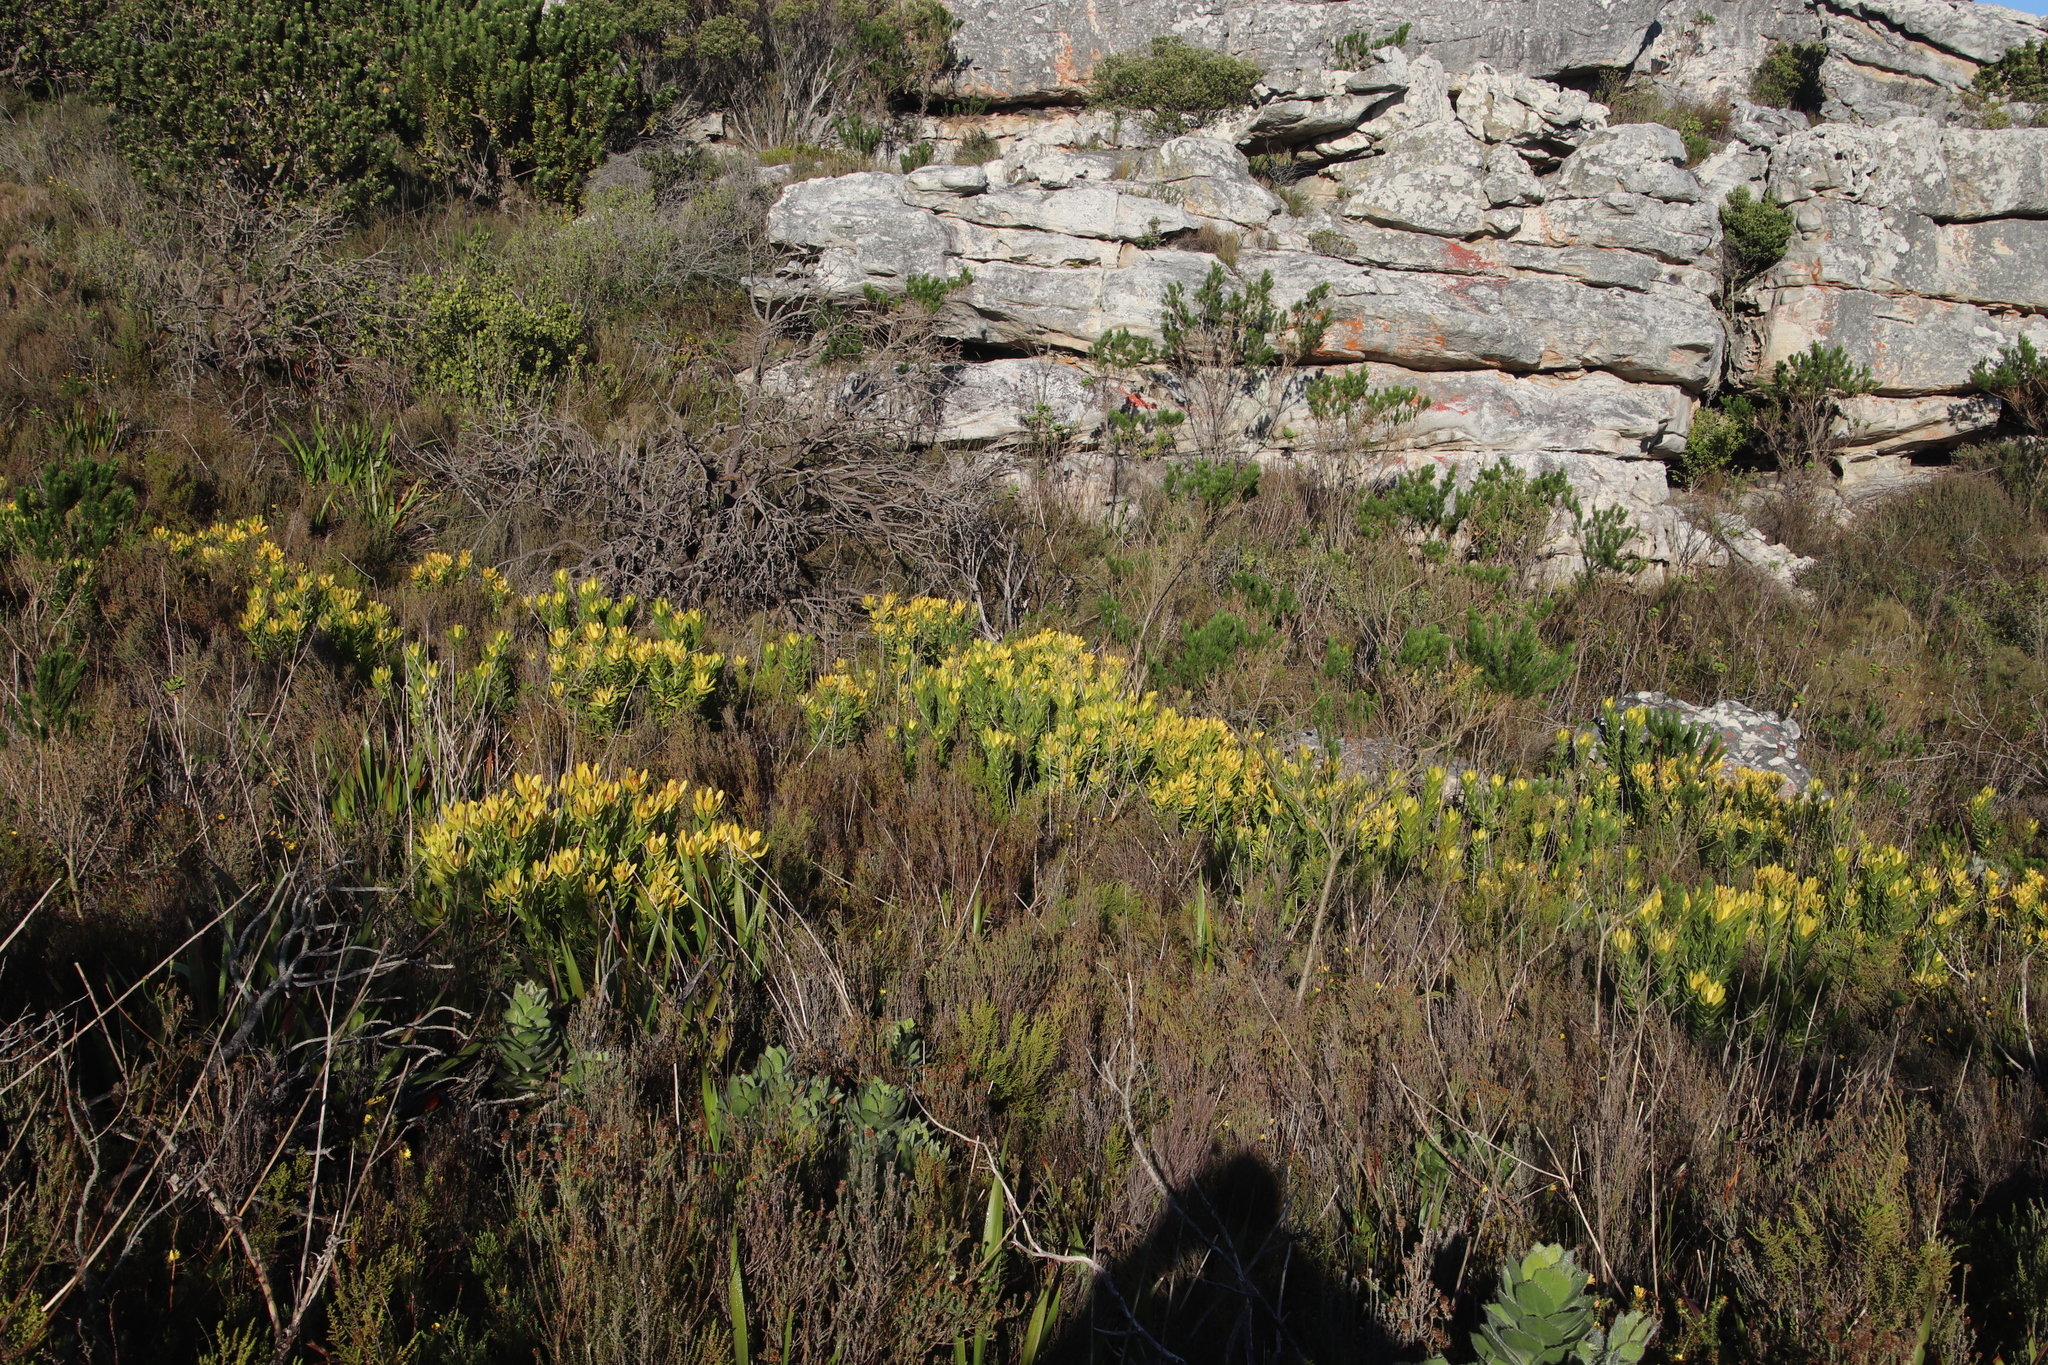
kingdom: Plantae
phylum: Tracheophyta
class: Magnoliopsida
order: Proteales
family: Proteaceae
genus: Leucadendron
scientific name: Leucadendron laureolum
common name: Golden sunshinebush
